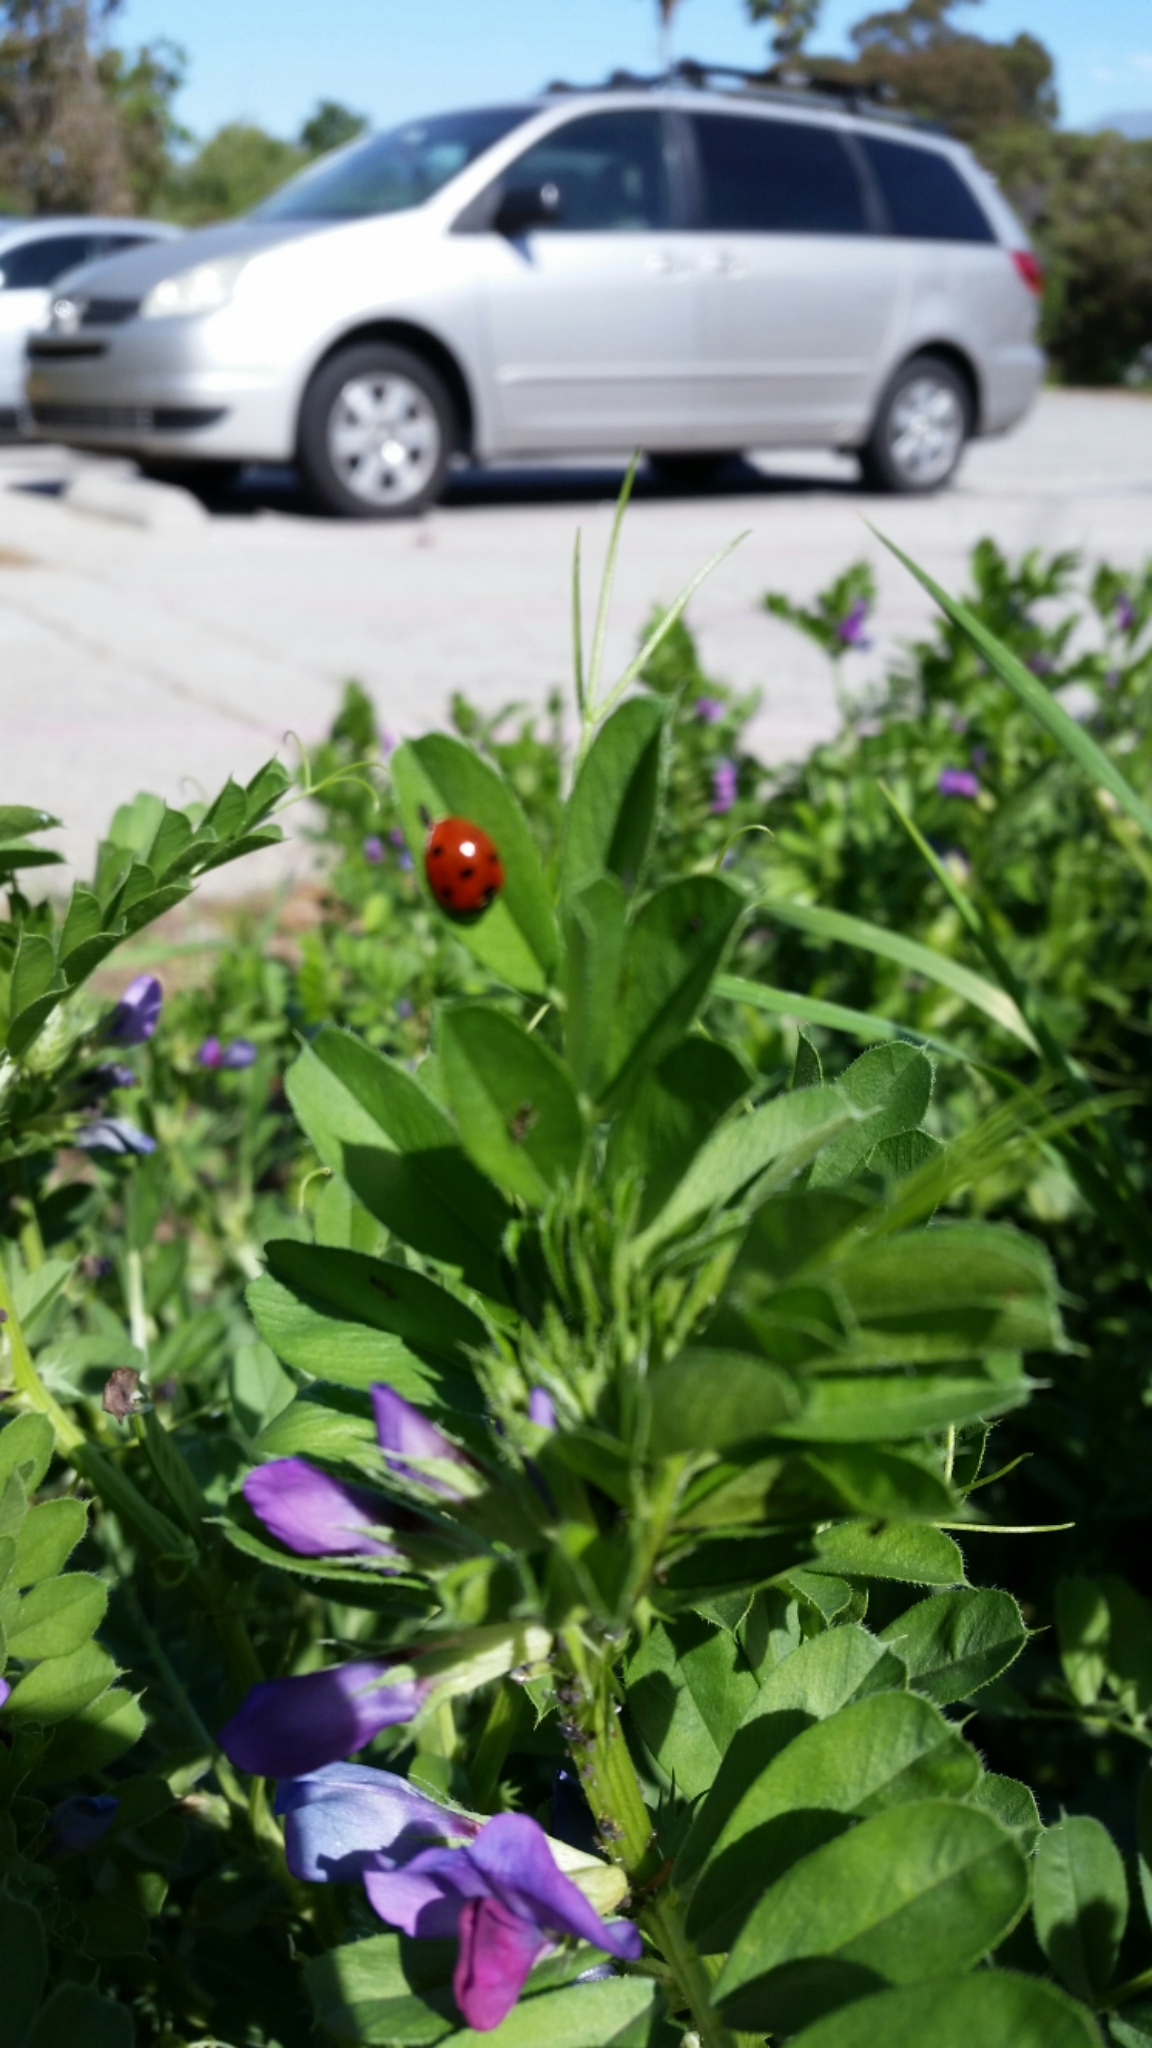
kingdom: Animalia
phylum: Arthropoda
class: Insecta
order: Coleoptera
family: Coccinellidae
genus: Coccinella
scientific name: Coccinella septempunctata
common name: Sevenspotted lady beetle
